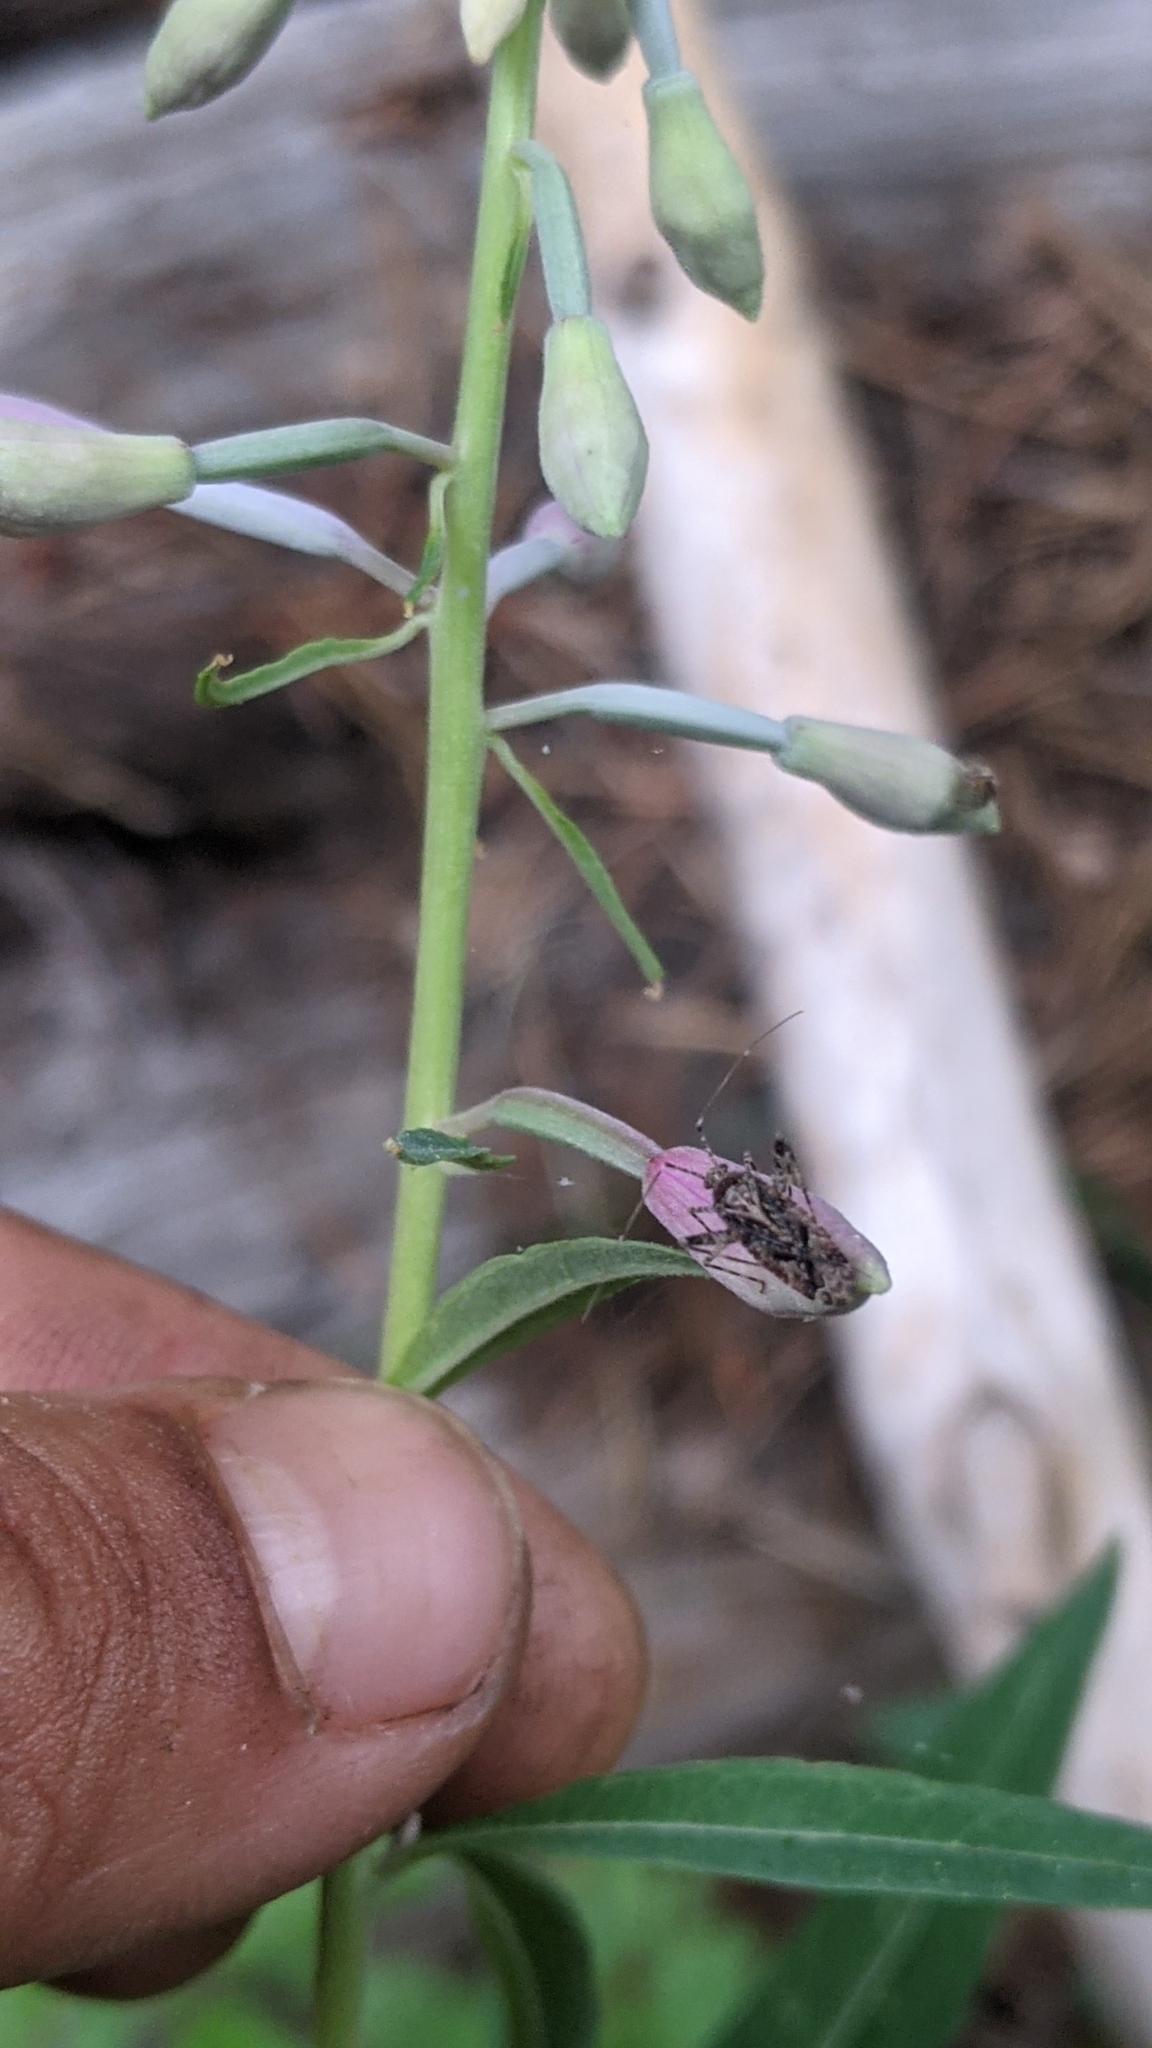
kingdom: Plantae
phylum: Tracheophyta
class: Magnoliopsida
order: Myrtales
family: Onagraceae
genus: Chamaenerion
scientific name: Chamaenerion angustifolium
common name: Fireweed
